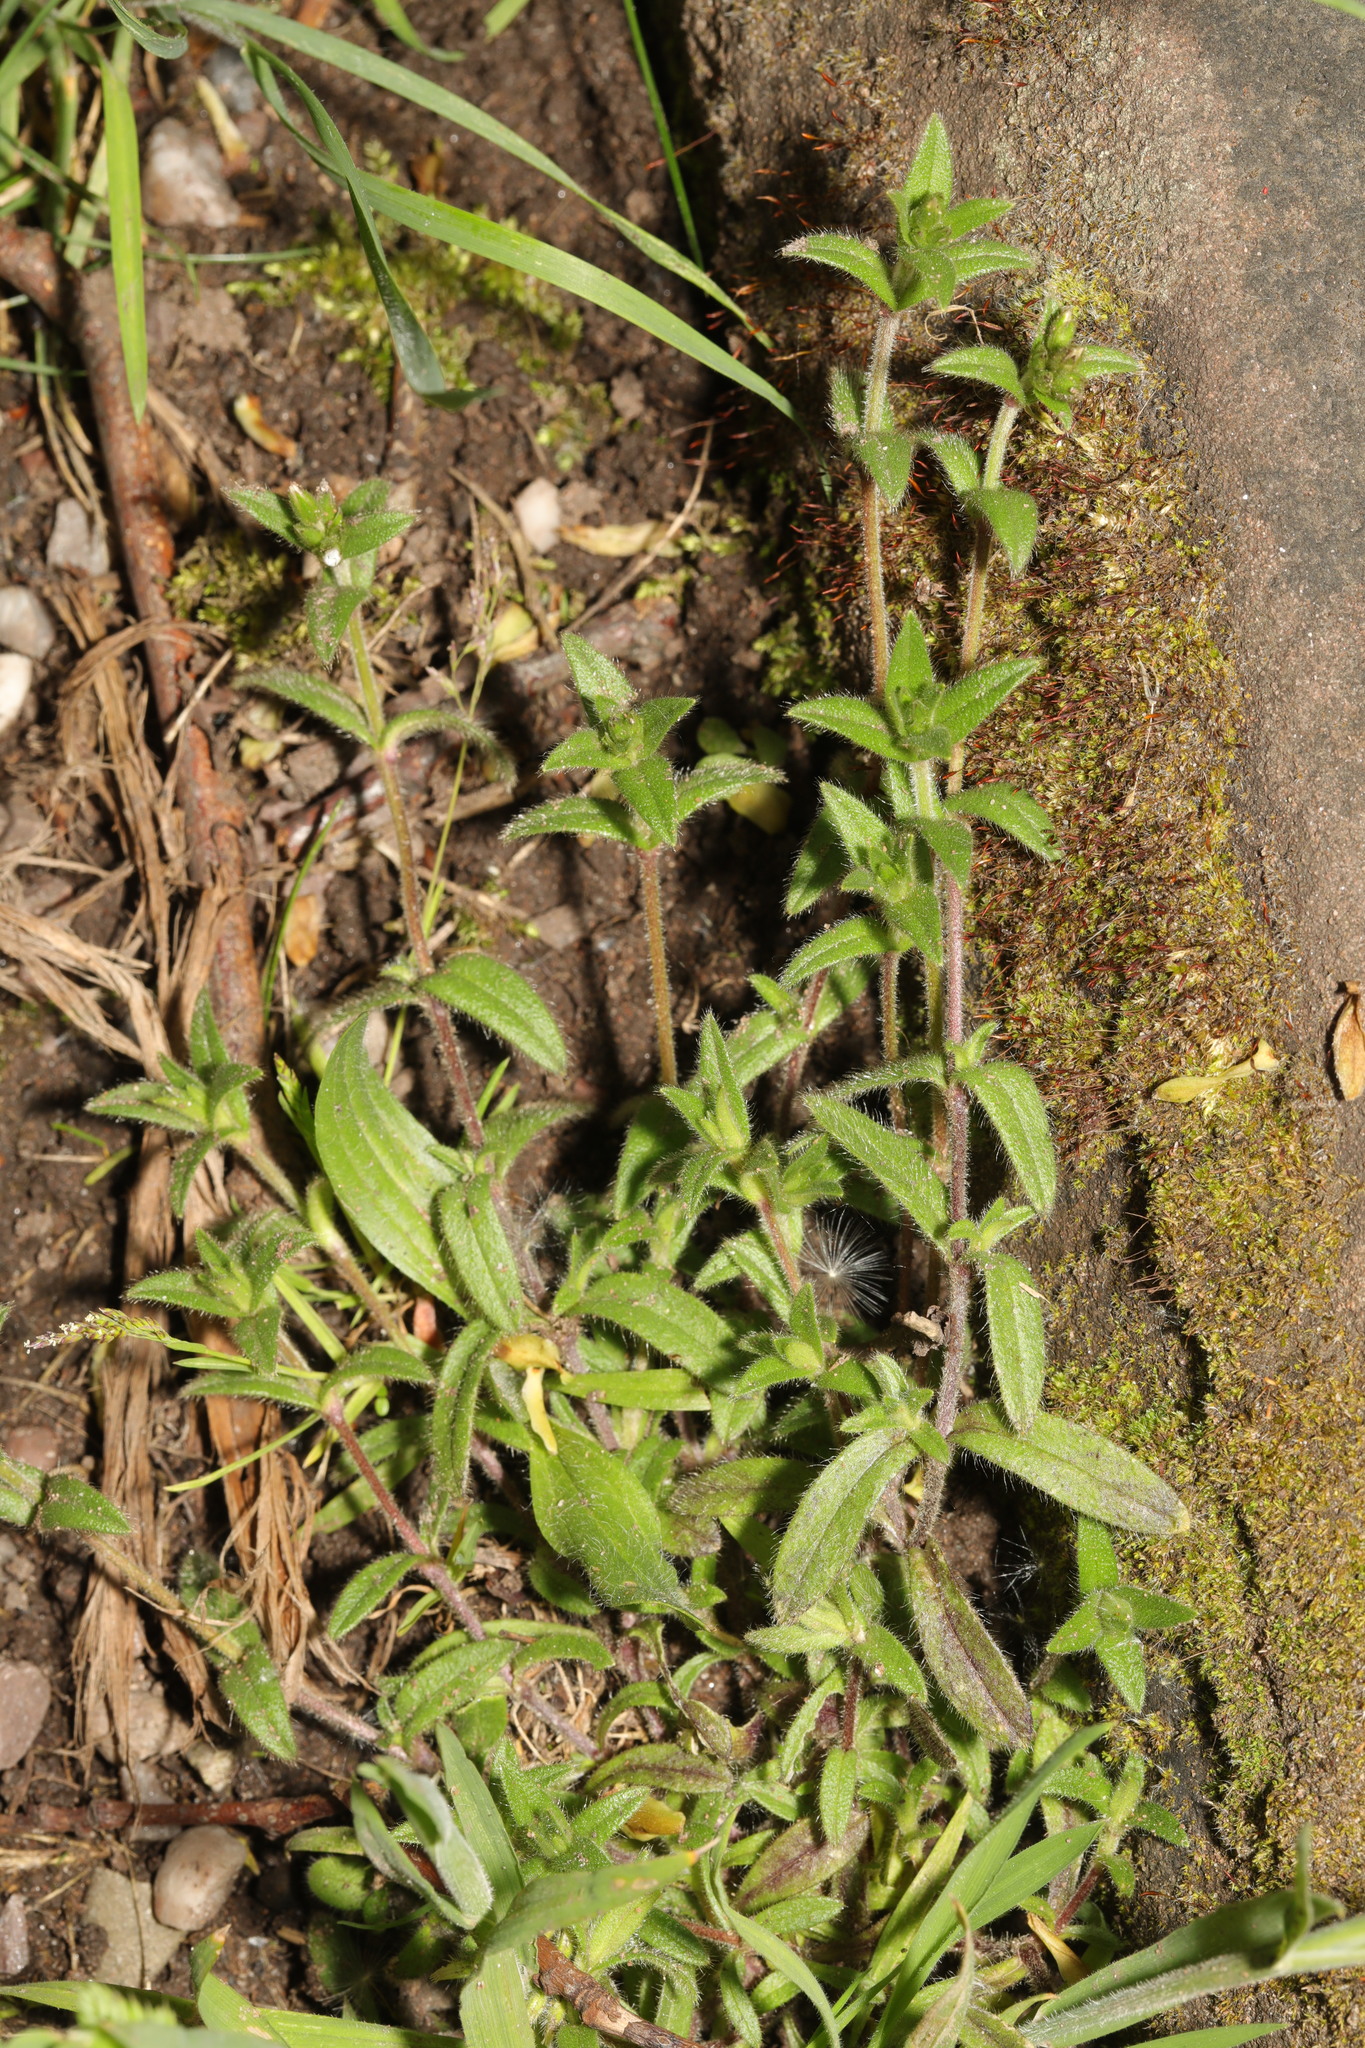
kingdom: Plantae
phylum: Tracheophyta
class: Magnoliopsida
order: Caryophyllales
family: Caryophyllaceae
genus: Cerastium
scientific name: Cerastium fontanum
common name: Common mouse-ear
